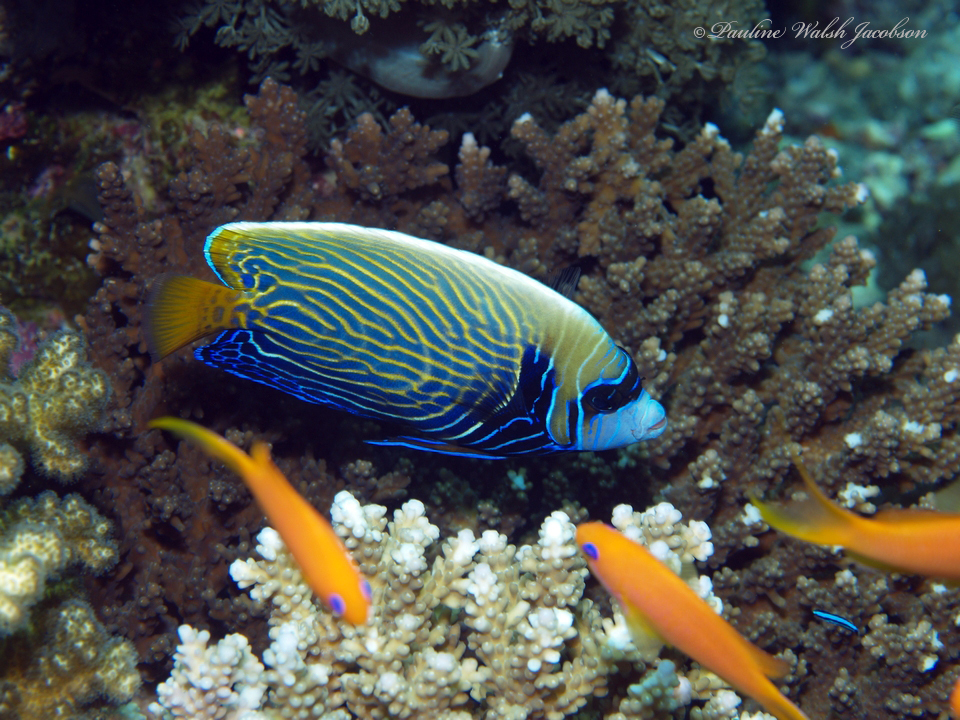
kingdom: Animalia
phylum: Chordata
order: Perciformes
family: Pomacanthidae
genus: Pomacanthus
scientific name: Pomacanthus imperator
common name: Emperor angelfish
